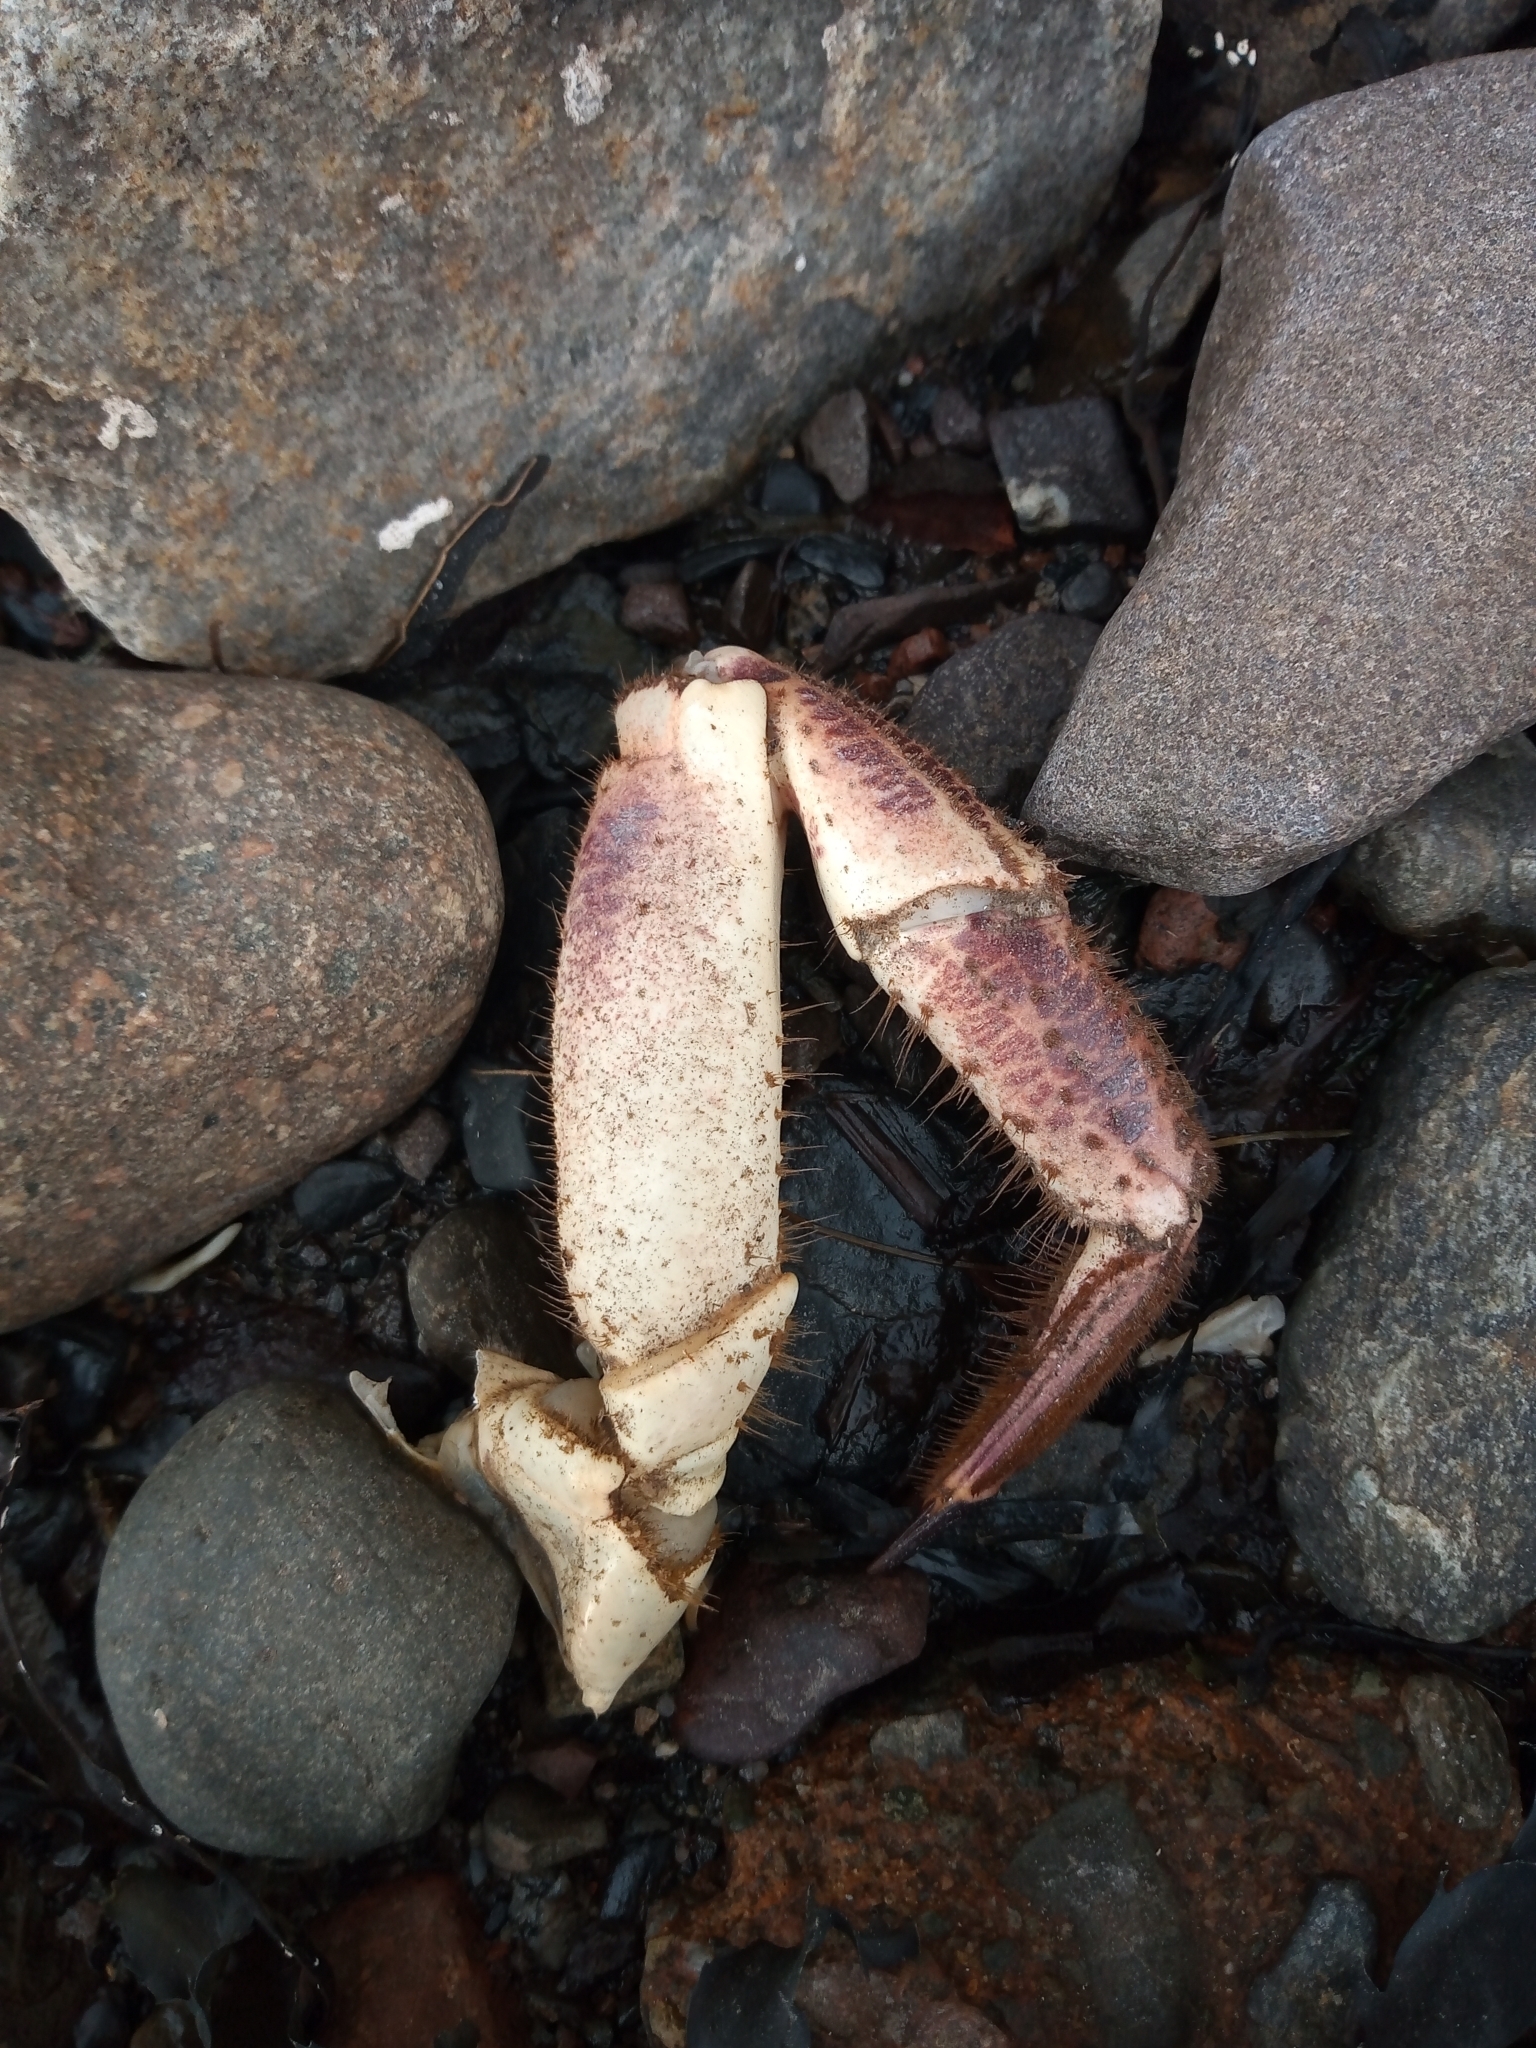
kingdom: Animalia
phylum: Arthropoda
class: Malacostraca
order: Decapoda
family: Cancridae
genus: Cancer
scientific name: Cancer pagurus
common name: Edible crab
